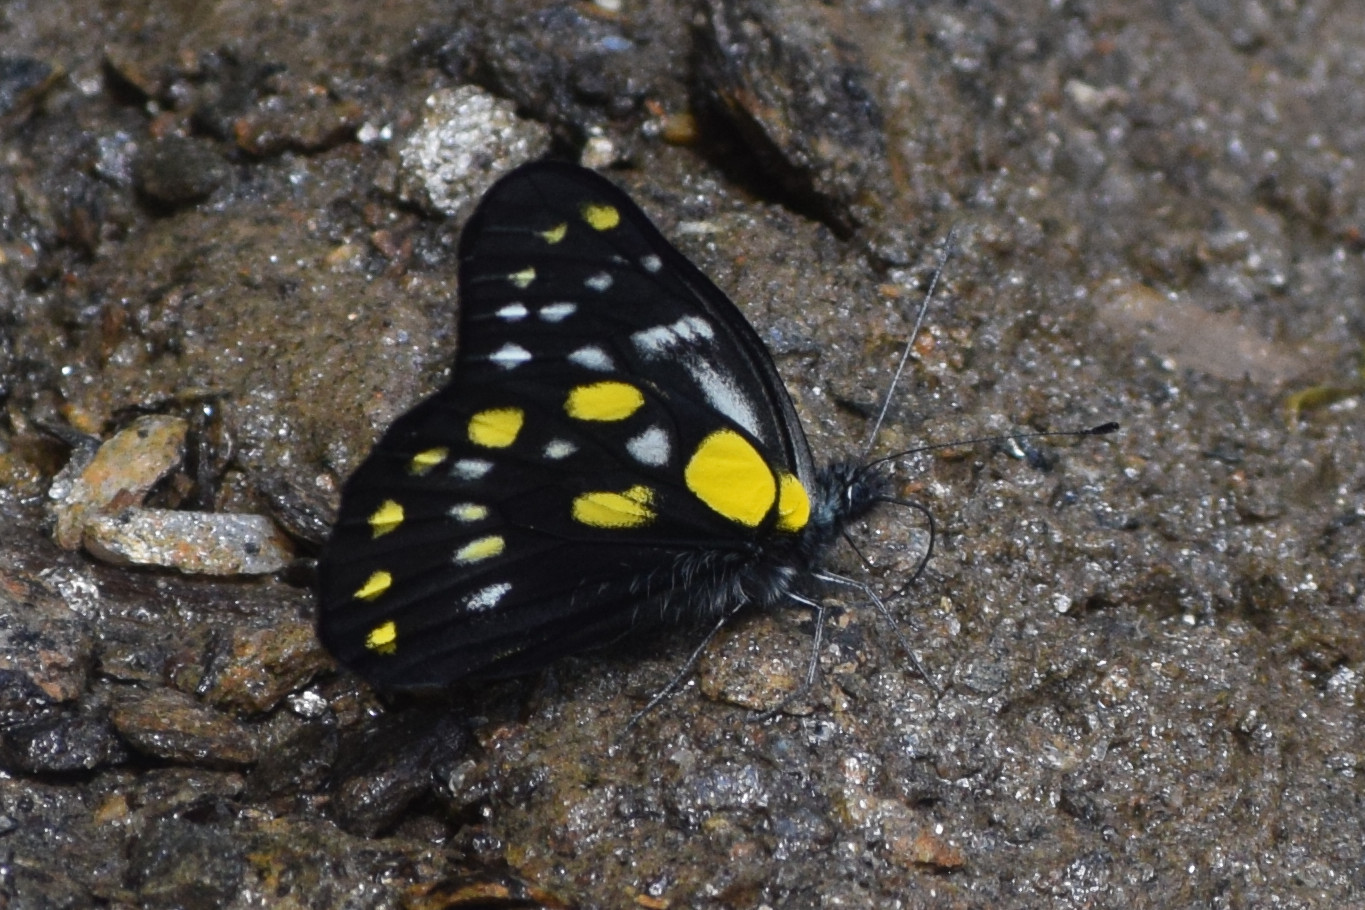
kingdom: Animalia
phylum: Arthropoda
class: Insecta
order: Lepidoptera
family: Pieridae
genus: Delias
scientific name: Delias belladonna
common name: Hill jezebel
